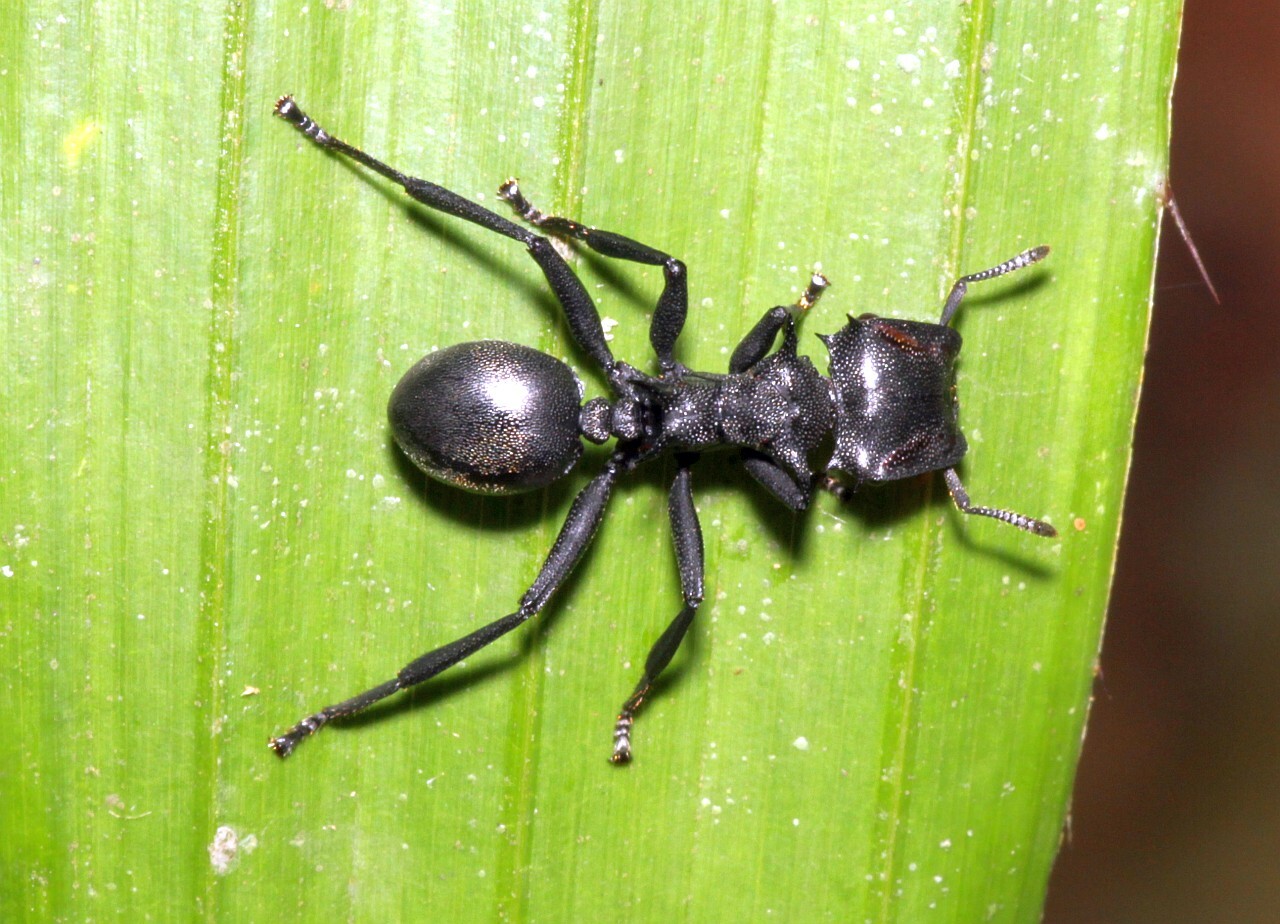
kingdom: Animalia
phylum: Arthropoda
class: Insecta
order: Hymenoptera
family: Formicidae
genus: Cephalotes
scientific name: Cephalotes atratus
